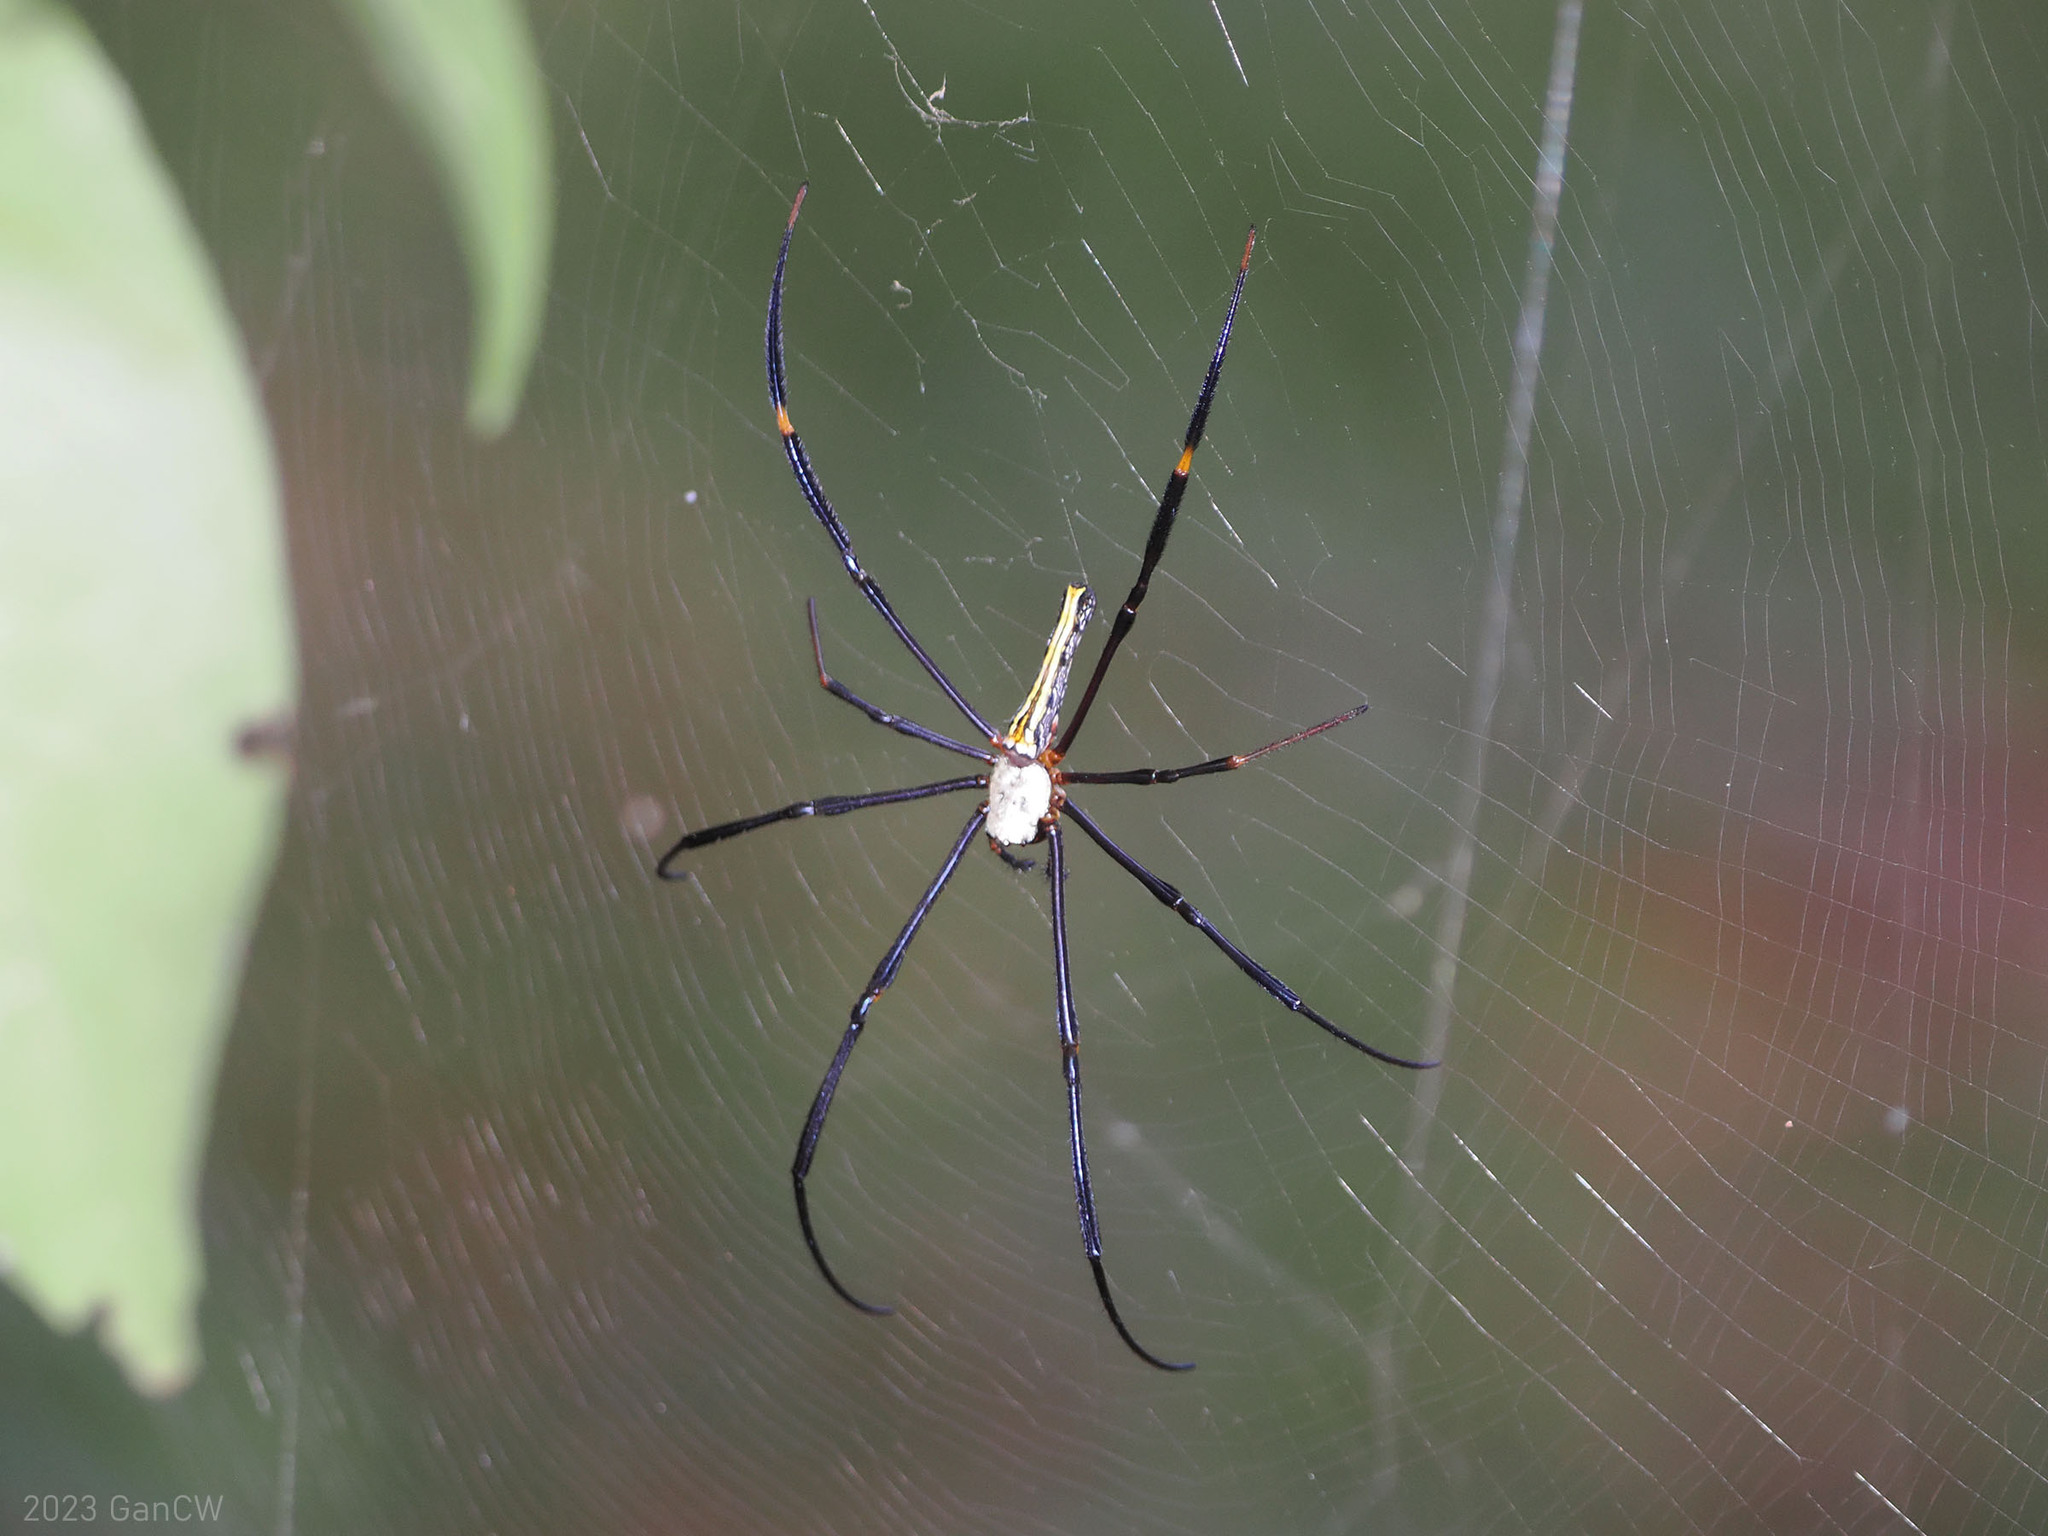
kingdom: Animalia
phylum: Arthropoda
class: Arachnida
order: Araneae
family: Araneidae
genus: Nephila
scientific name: Nephila pilipes
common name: Giant golden orb weaver
